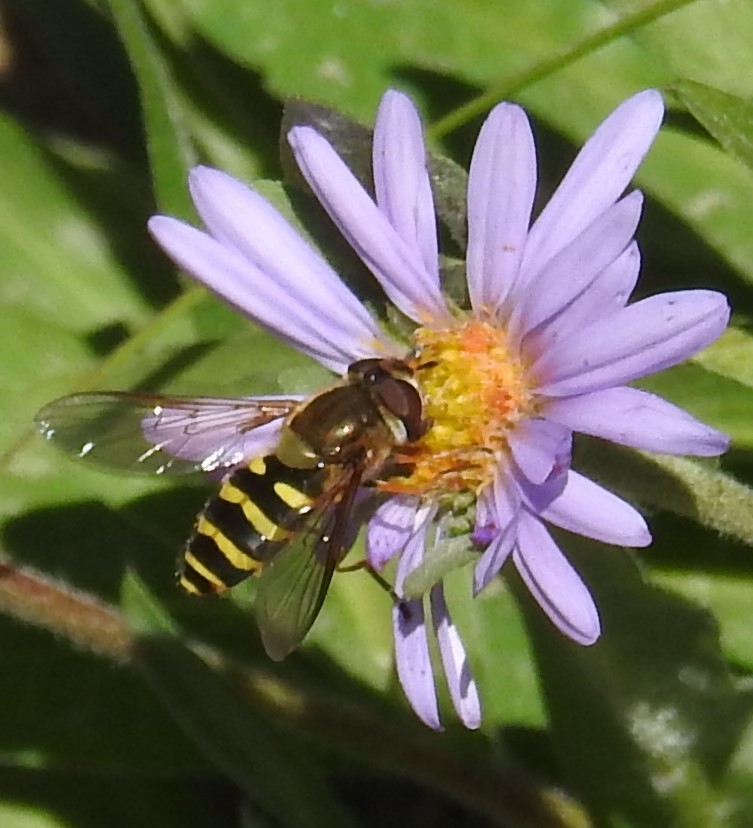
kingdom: Animalia
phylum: Arthropoda
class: Insecta
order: Diptera
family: Syrphidae
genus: Syrphus
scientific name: Syrphus
